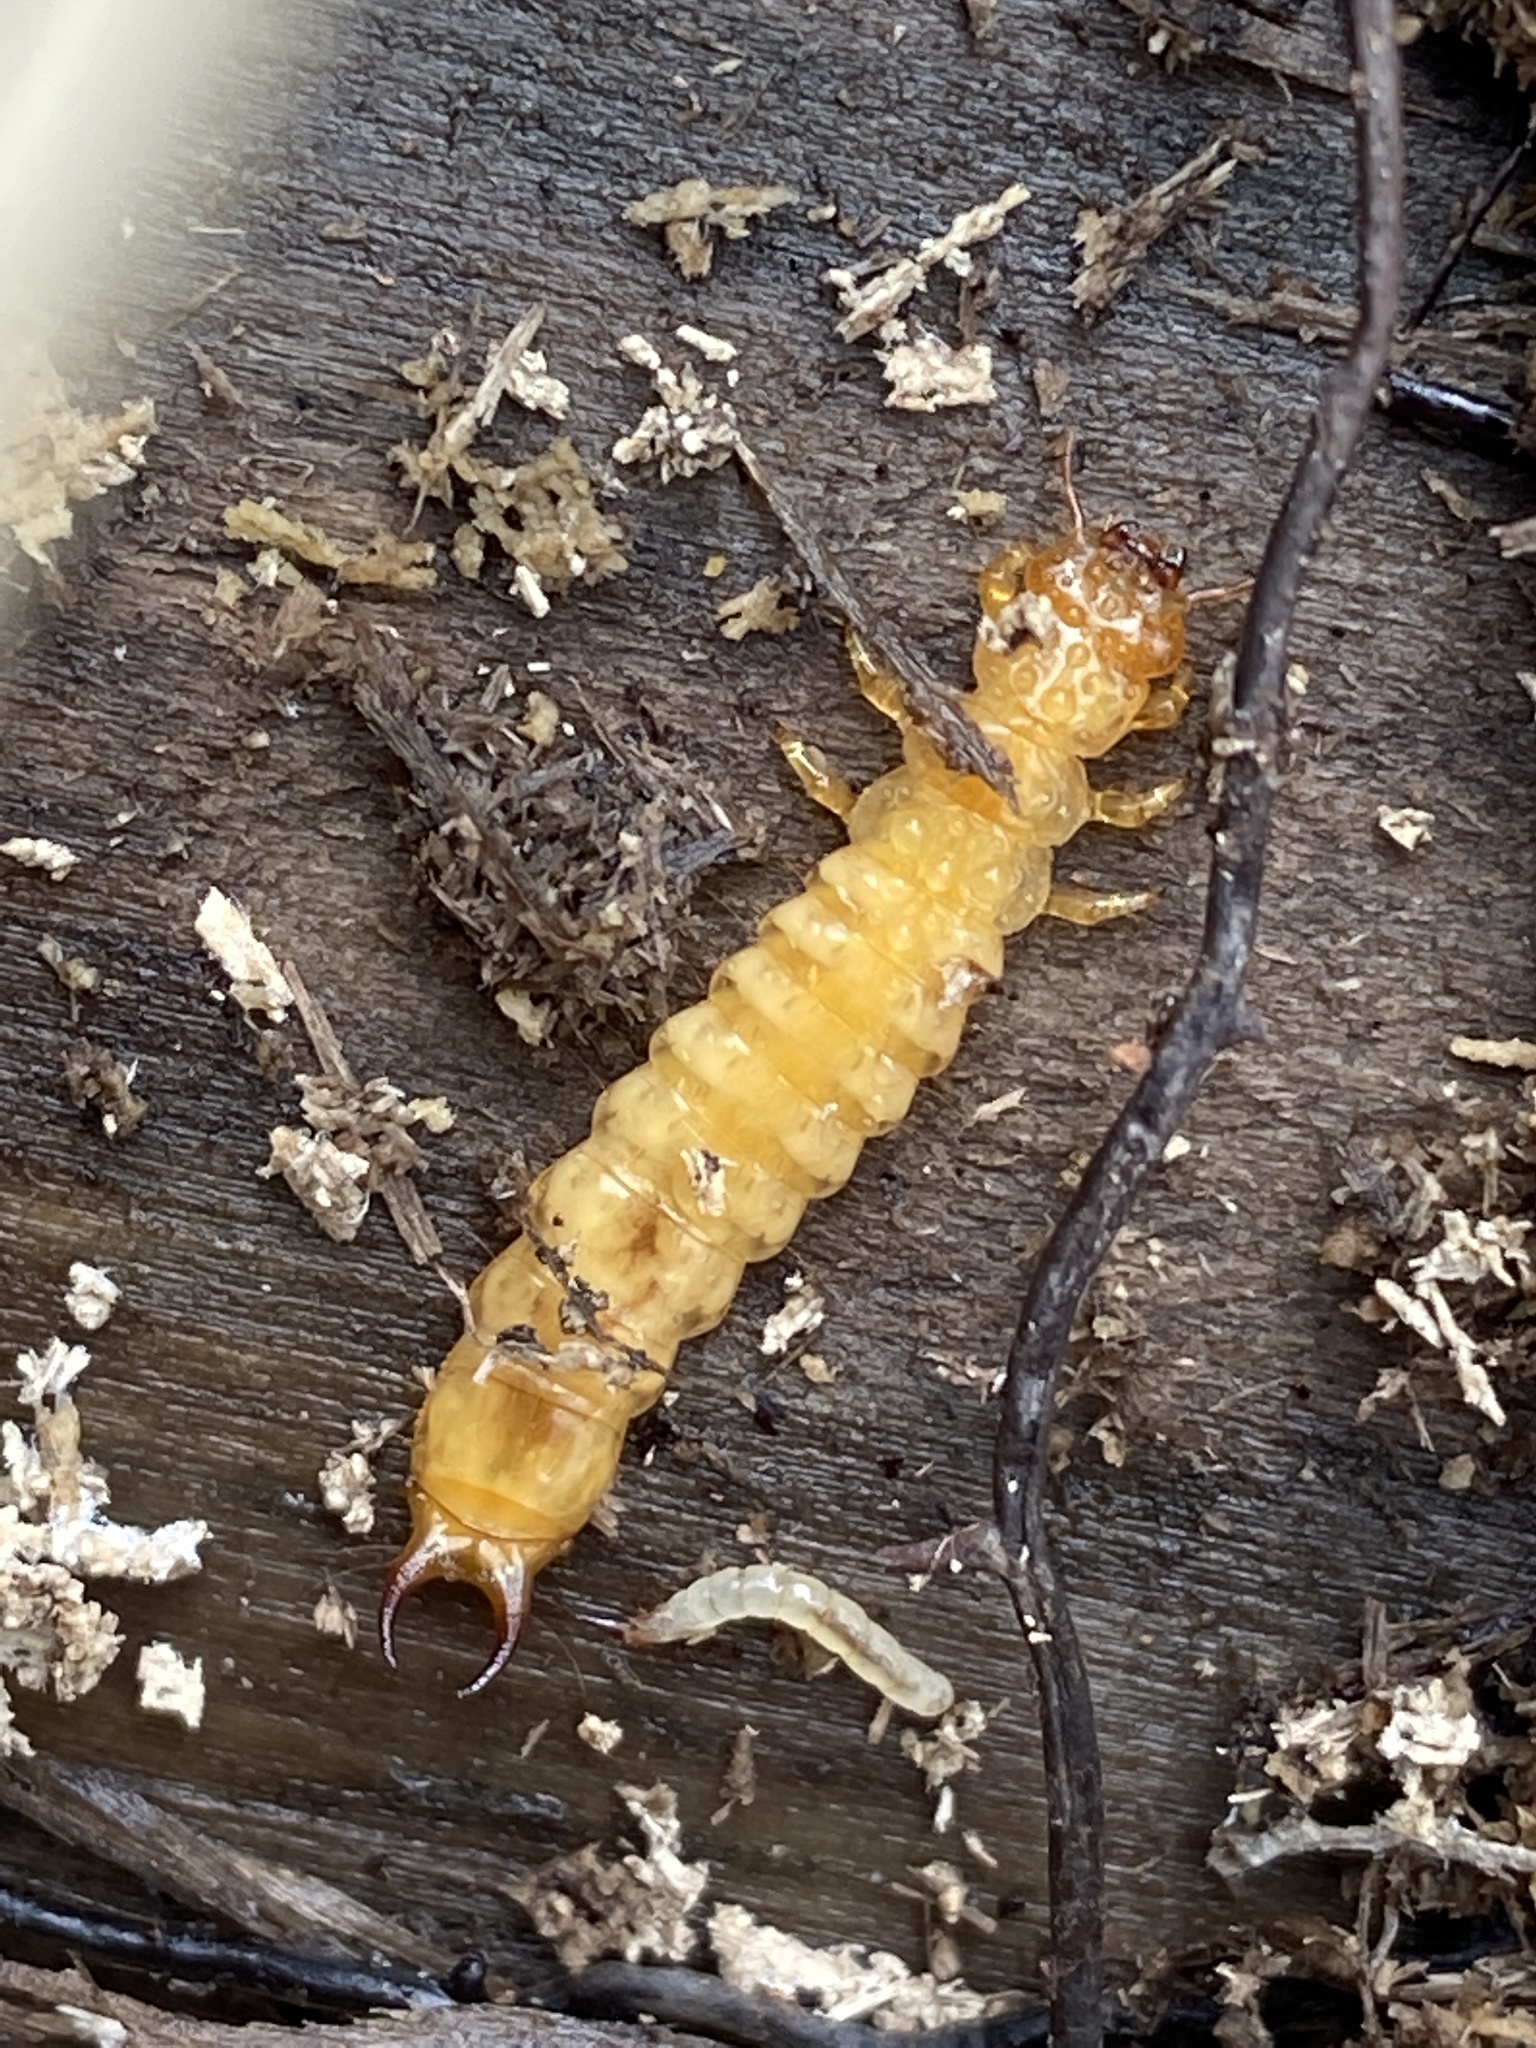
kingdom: Animalia
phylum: Arthropoda
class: Insecta
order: Coleoptera
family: Pyrochroidae
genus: Schizotus
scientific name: Schizotus pectinicornis
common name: Scarce cardinal beetle
